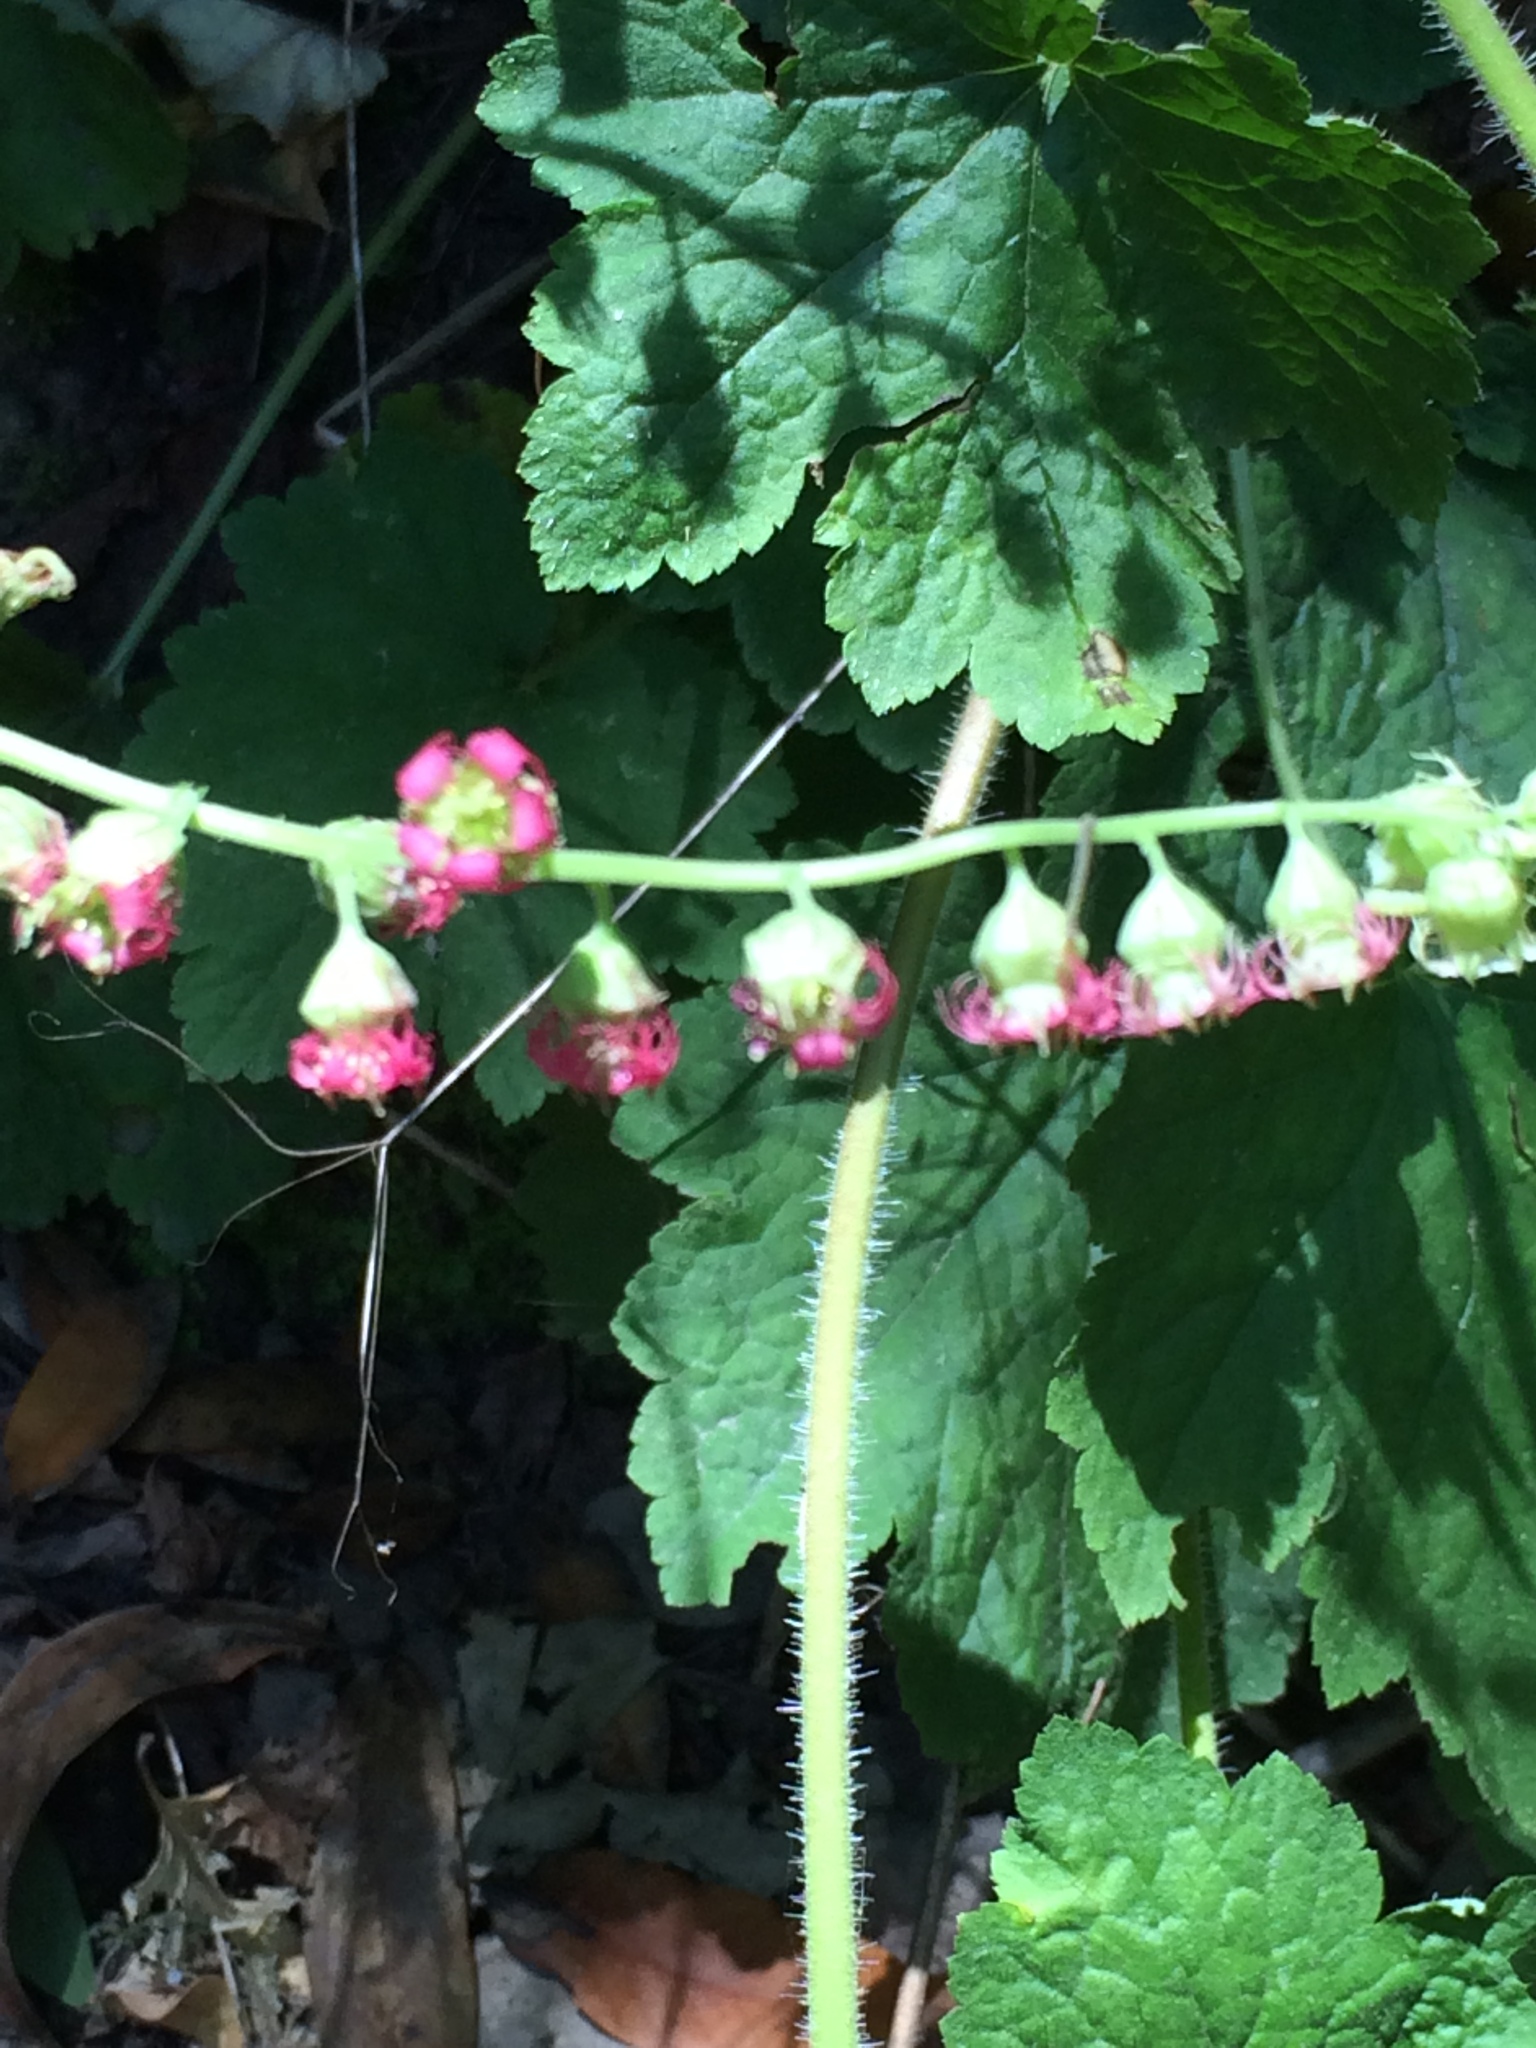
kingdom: Plantae
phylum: Tracheophyta
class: Magnoliopsida
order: Saxifragales
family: Saxifragaceae
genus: Tellima
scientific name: Tellima grandiflora
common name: Fringecups
